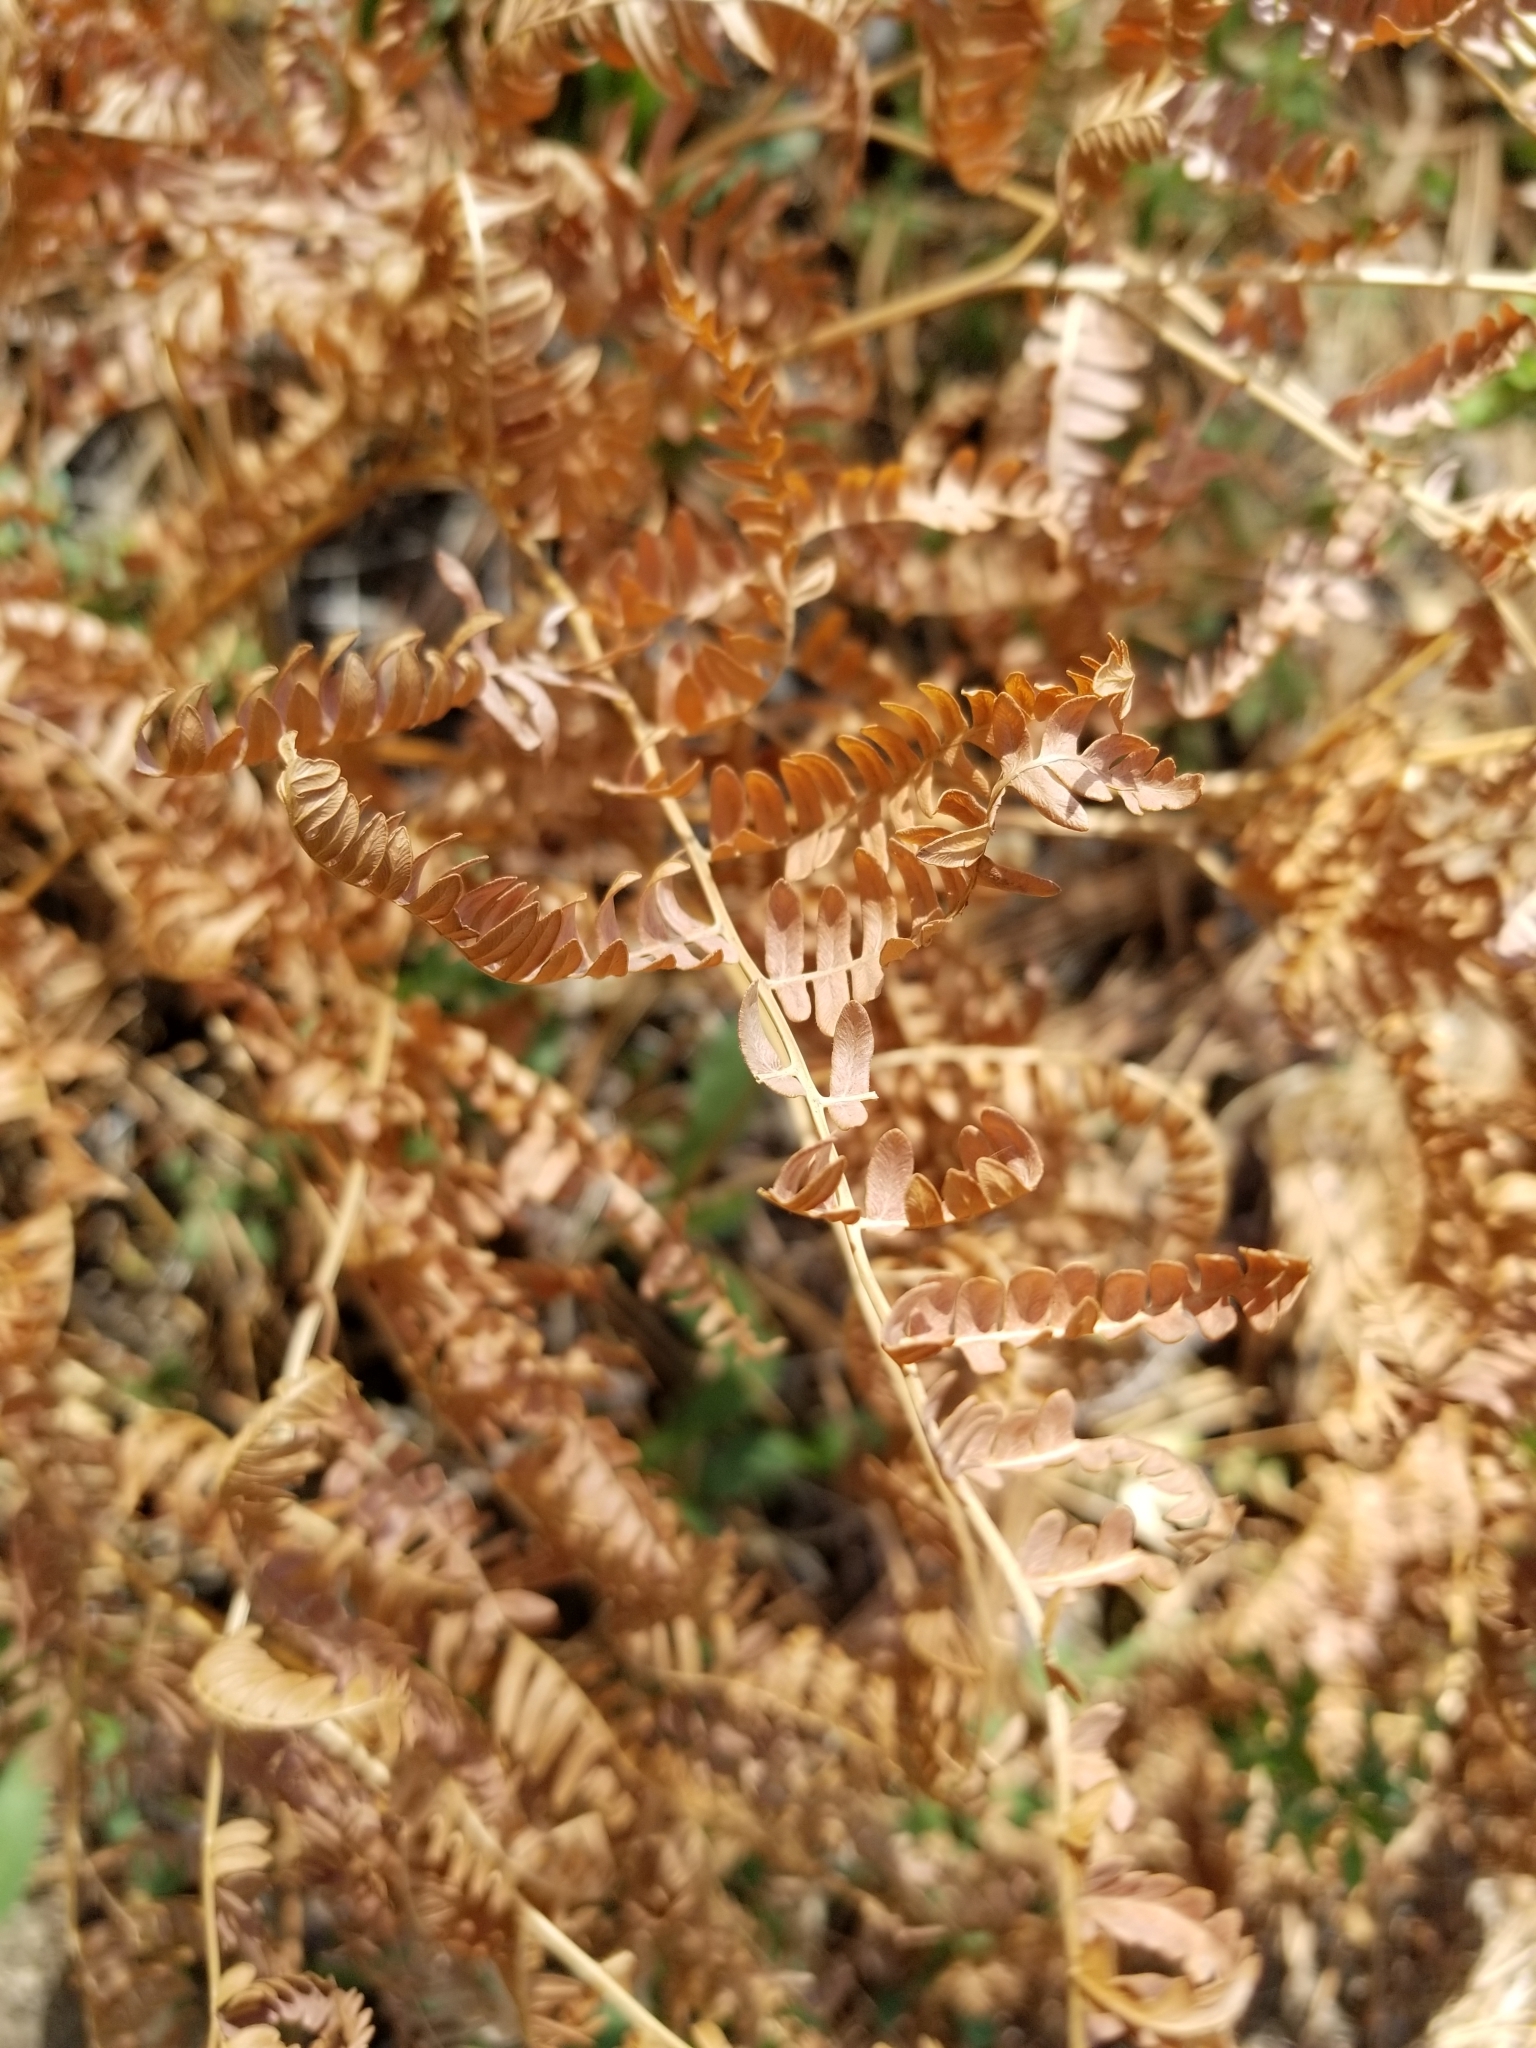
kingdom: Plantae
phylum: Tracheophyta
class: Polypodiopsida
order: Polypodiales
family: Dennstaedtiaceae
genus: Pteridium
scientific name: Pteridium aquilinum
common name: Bracken
